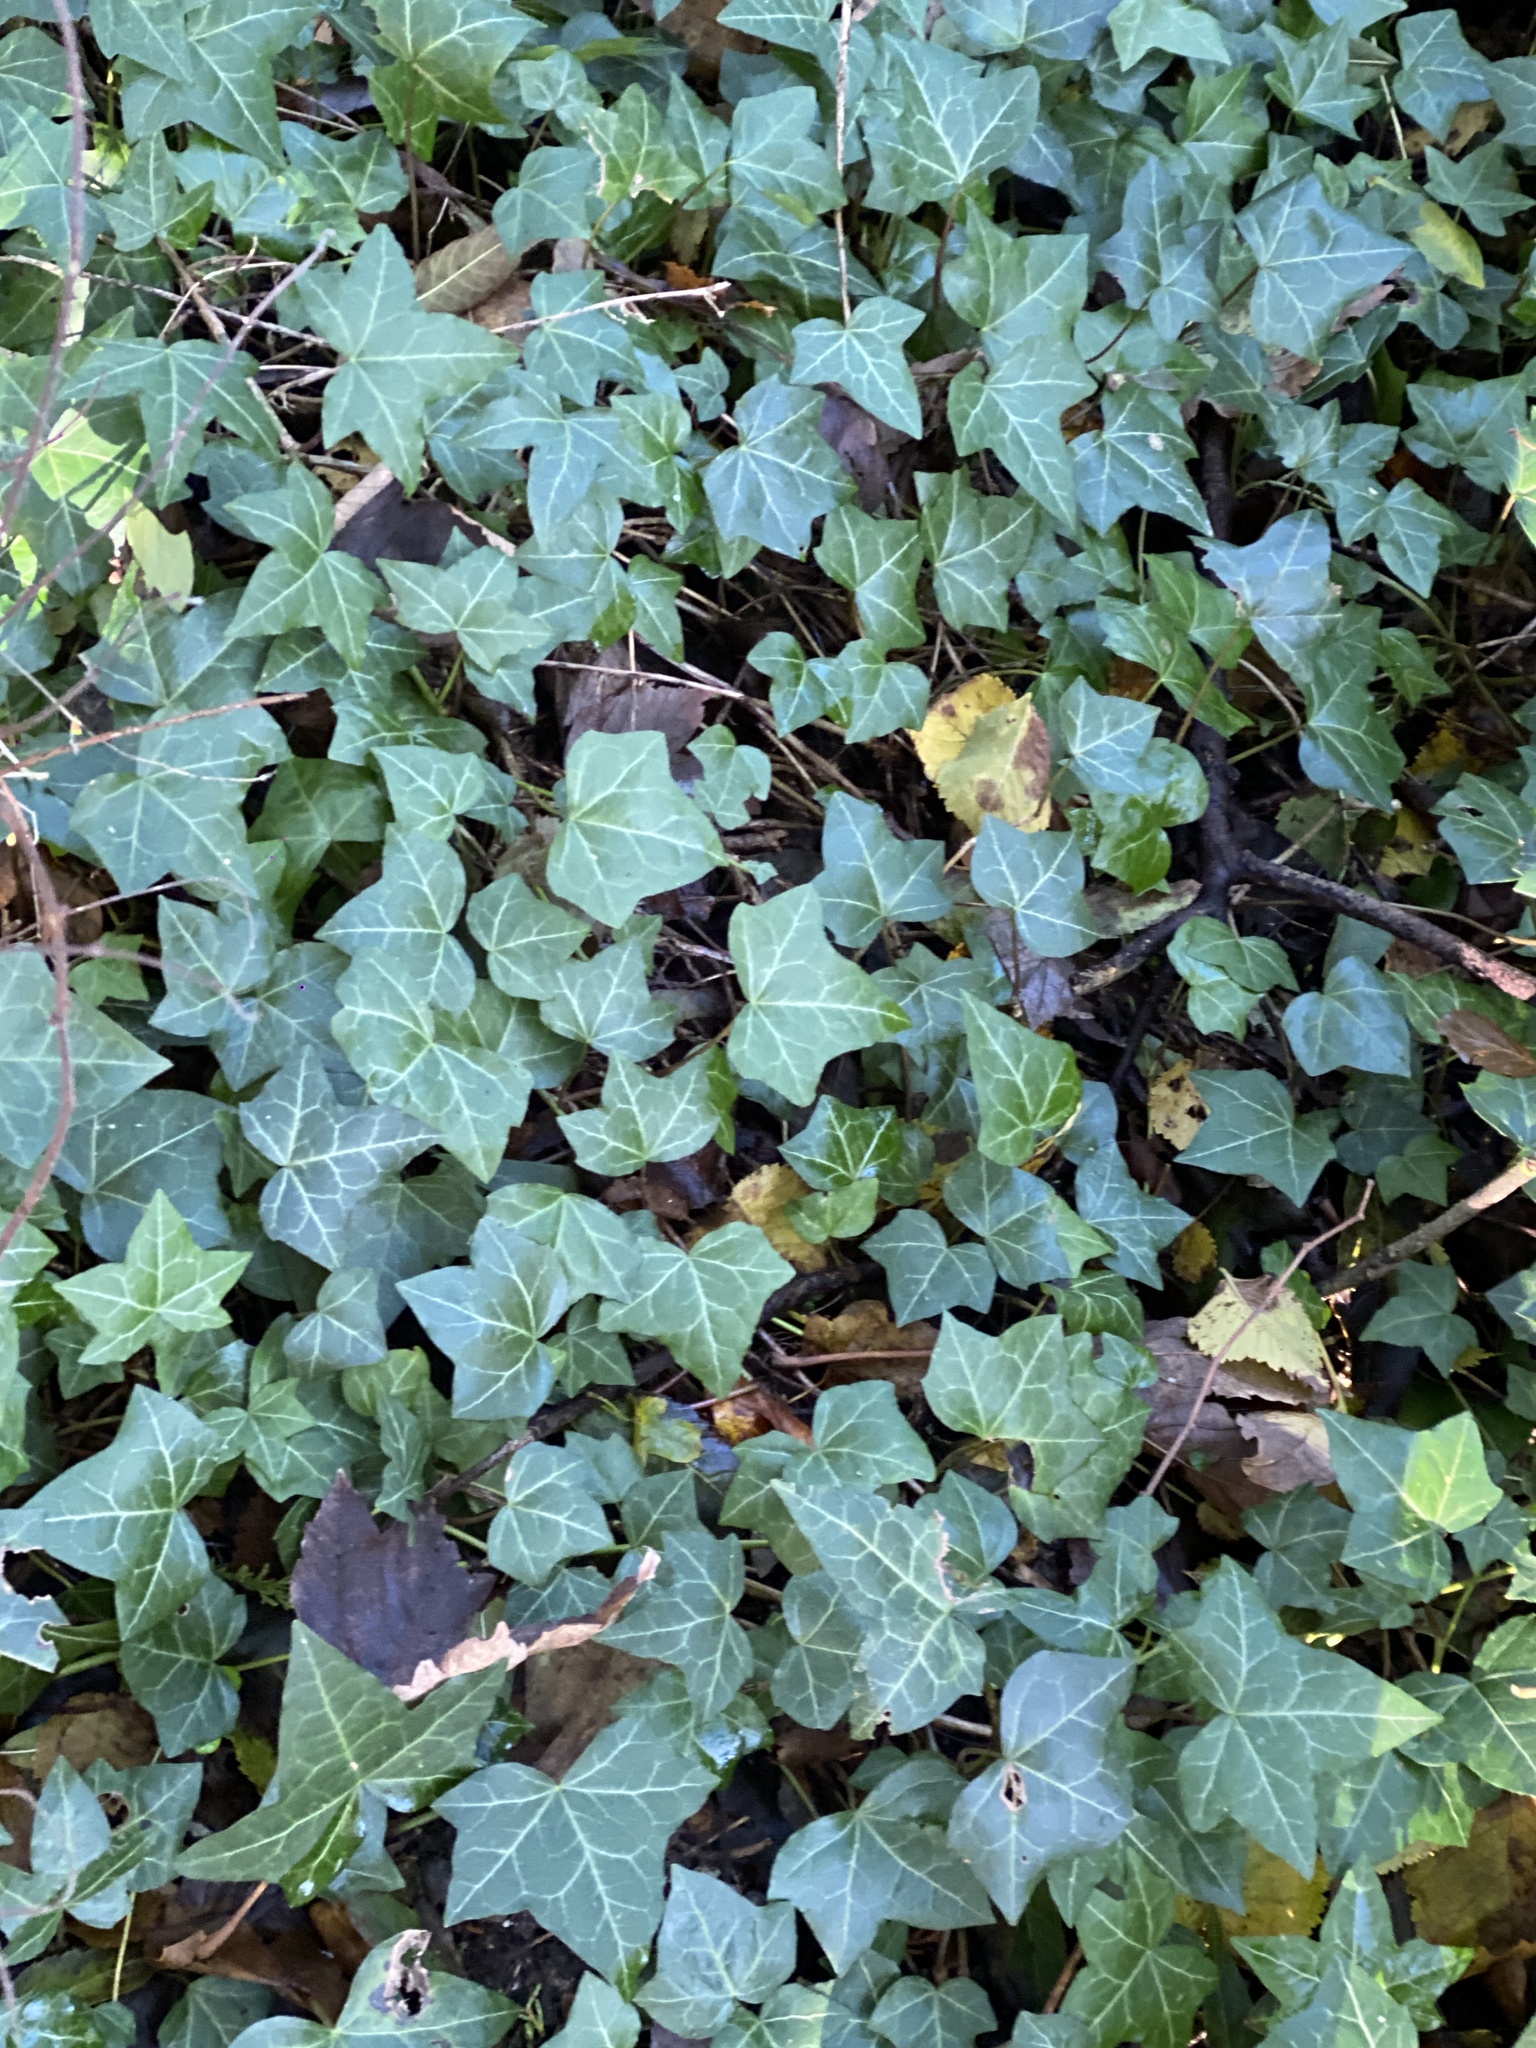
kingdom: Plantae
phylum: Tracheophyta
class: Magnoliopsida
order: Apiales
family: Araliaceae
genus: Hedera
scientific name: Hedera helix
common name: Ivy
